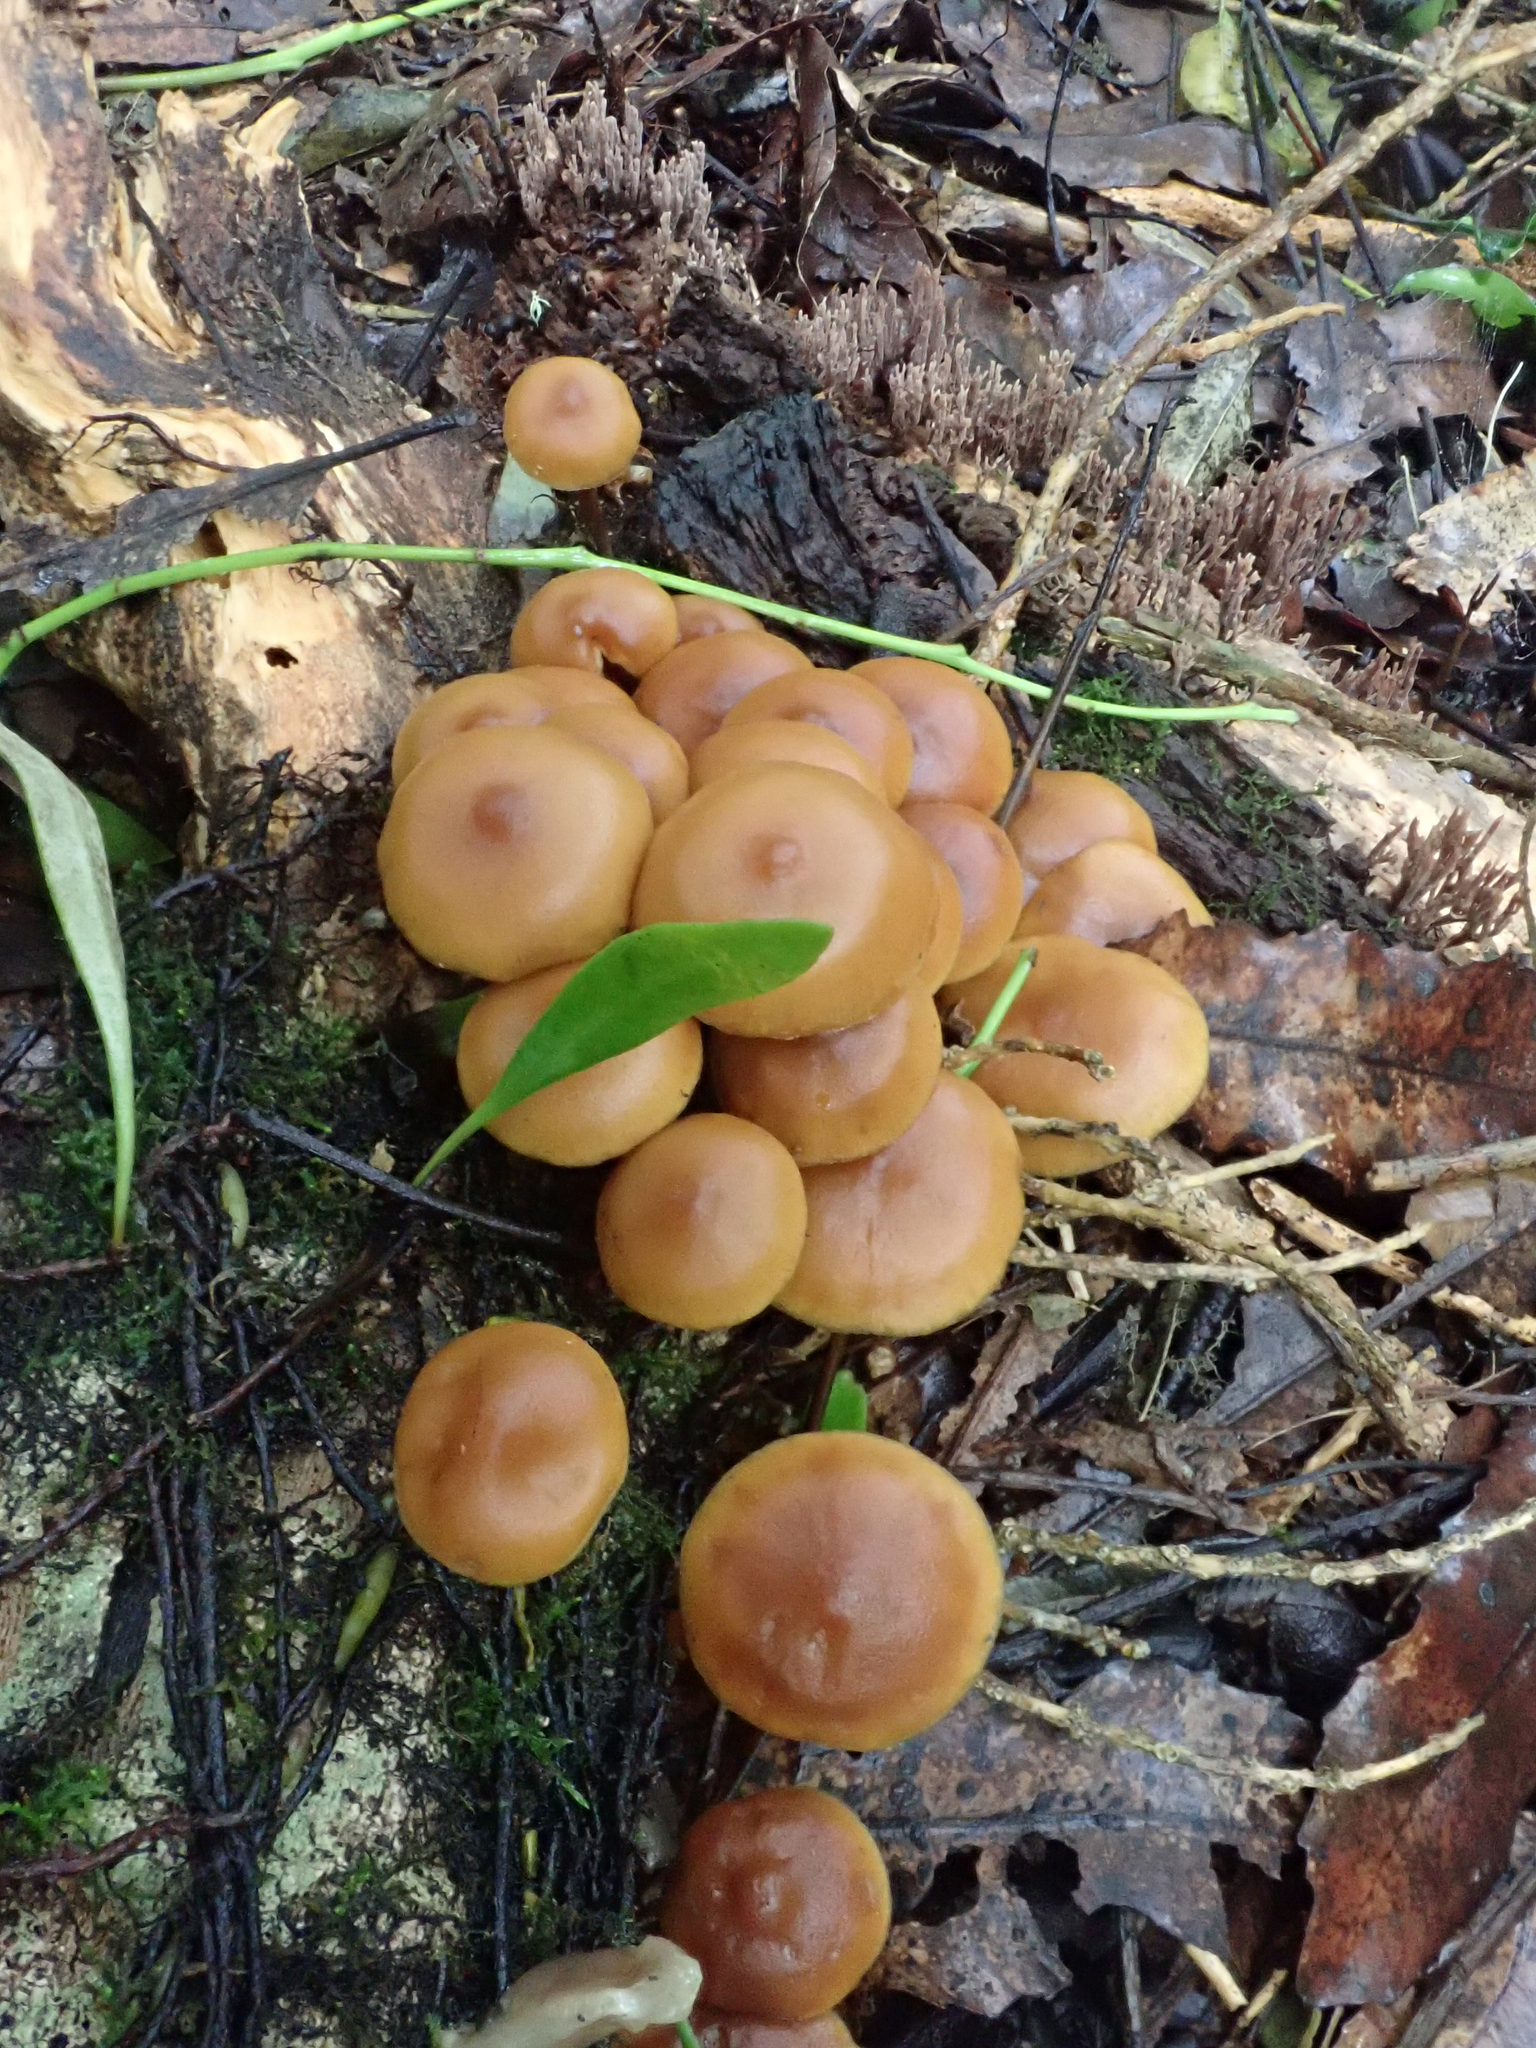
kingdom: Fungi
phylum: Basidiomycota
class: Agaricomycetes
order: Agaricales
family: Hymenogastraceae
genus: Galerina
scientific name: Galerina patagonica
